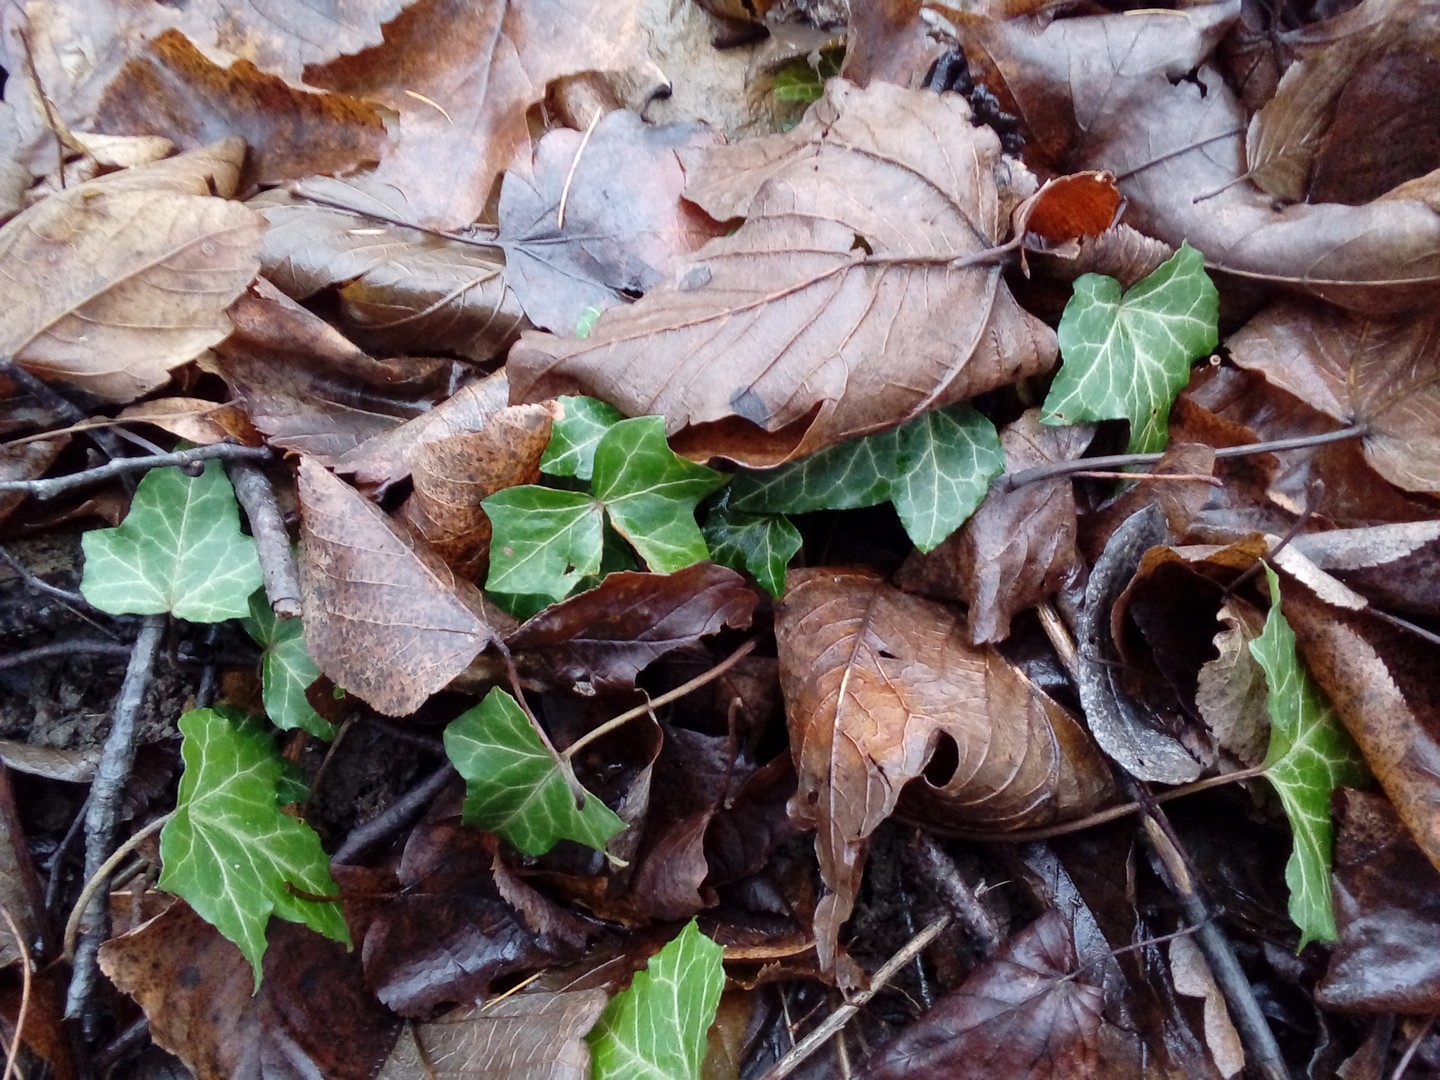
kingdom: Plantae
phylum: Tracheophyta
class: Magnoliopsida
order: Apiales
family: Araliaceae
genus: Hedera
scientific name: Hedera helix
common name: Ivy
